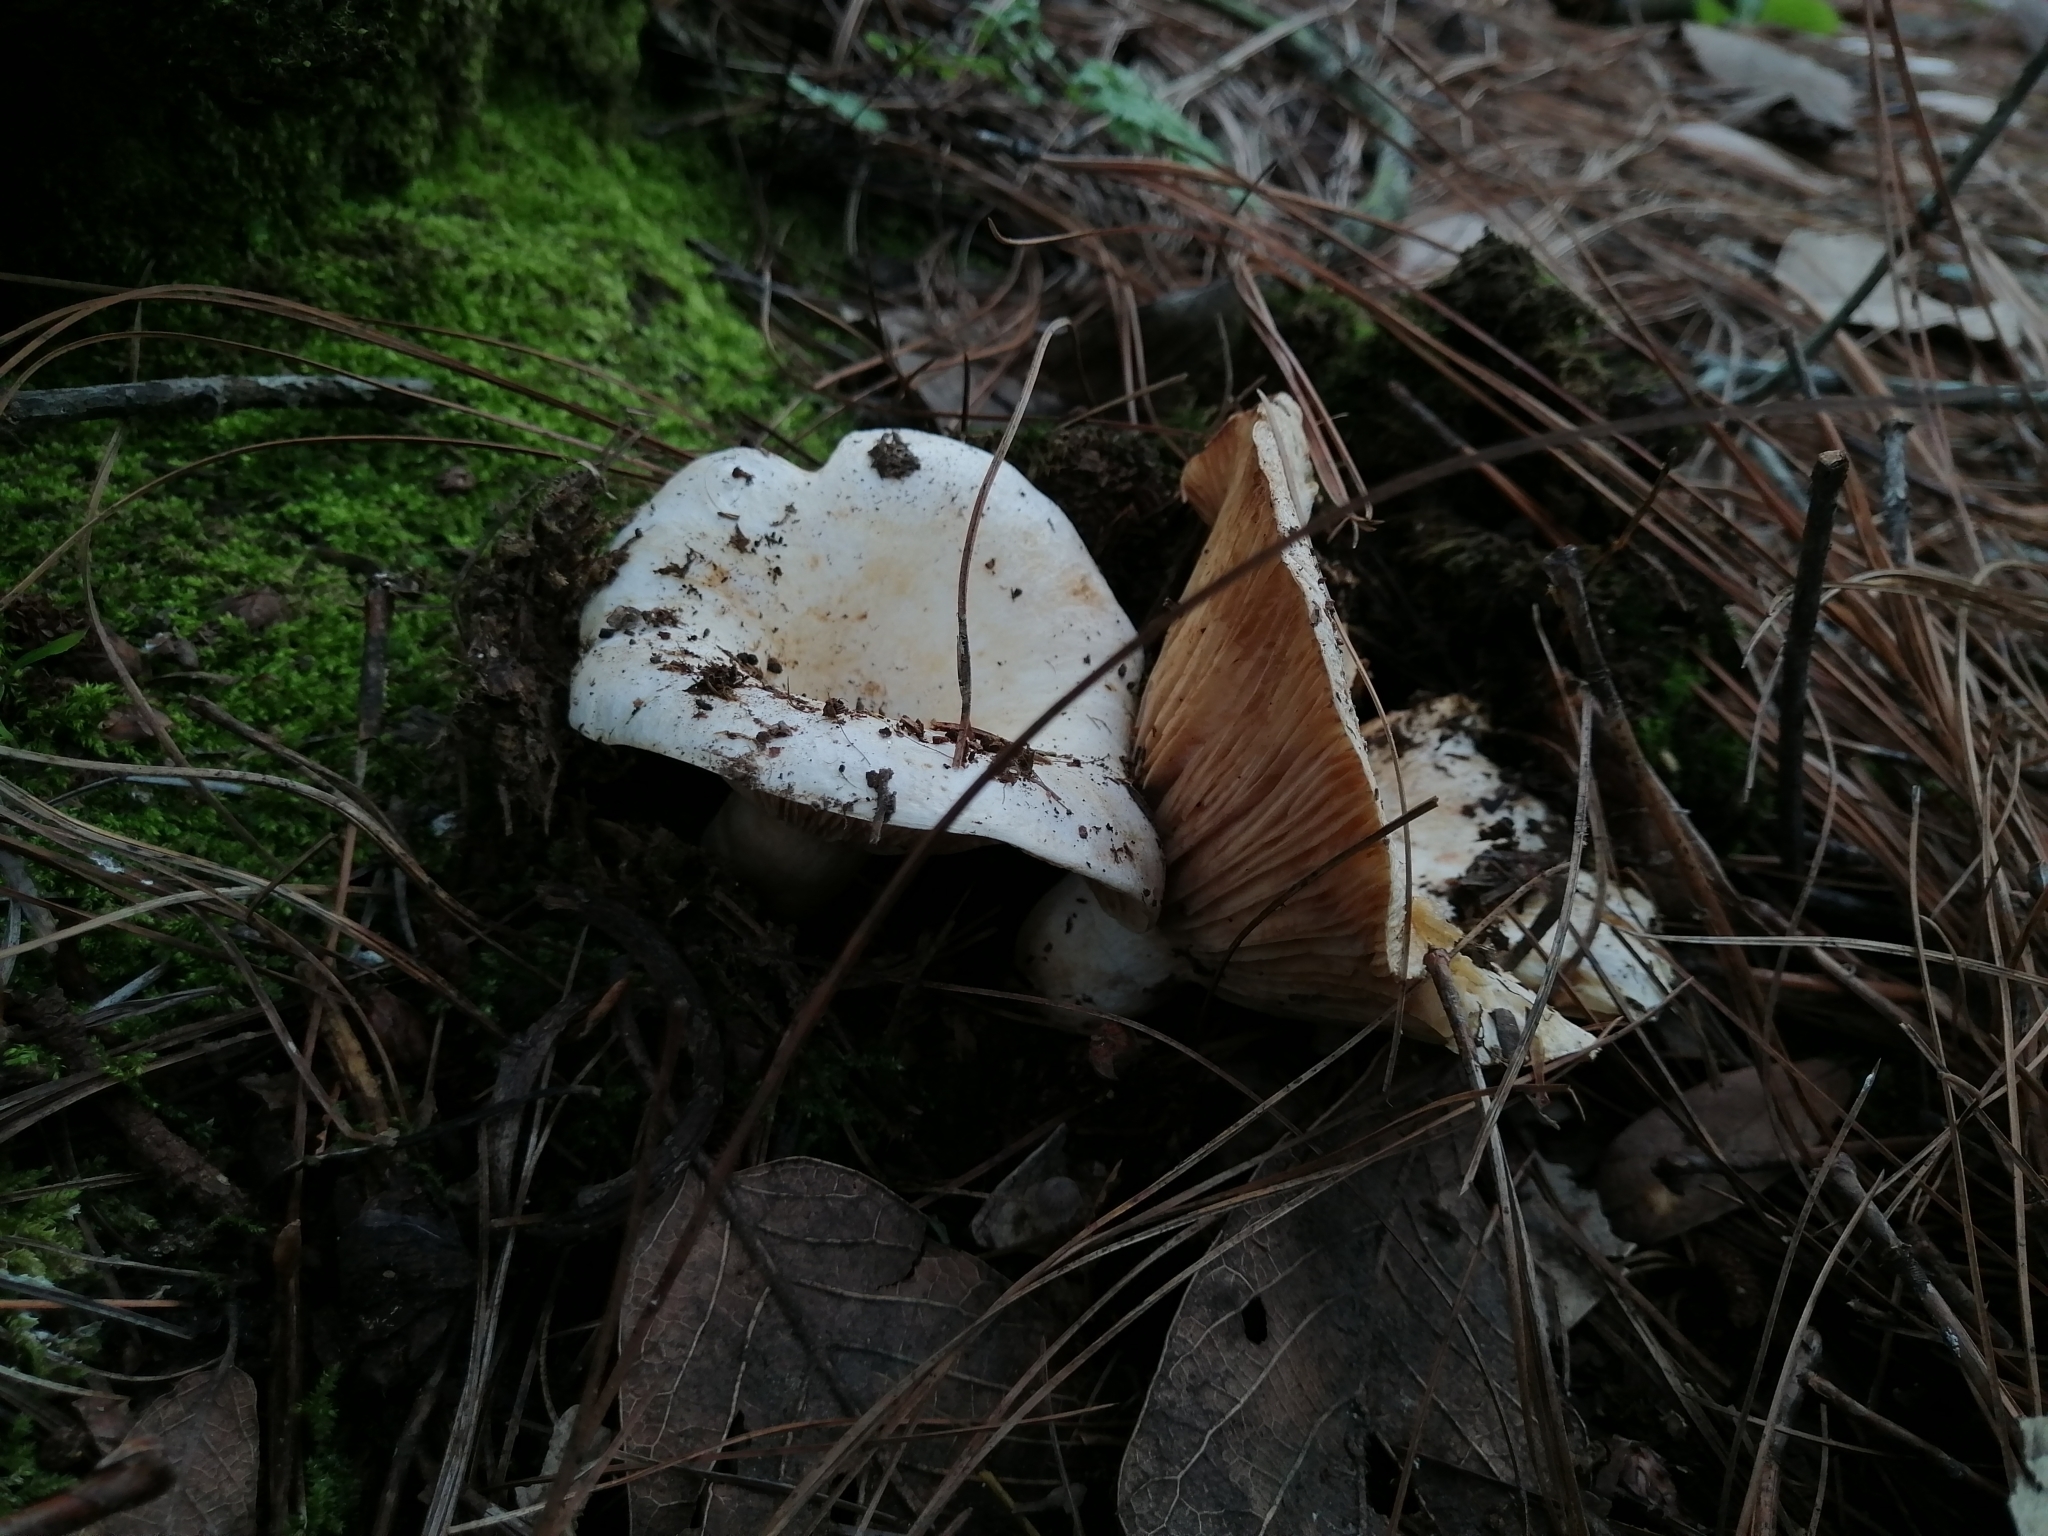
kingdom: Fungi
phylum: Basidiomycota
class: Agaricomycetes
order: Russulales
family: Russulaceae
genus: Russula
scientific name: Russula brevipes
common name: Short-stemmed russula
